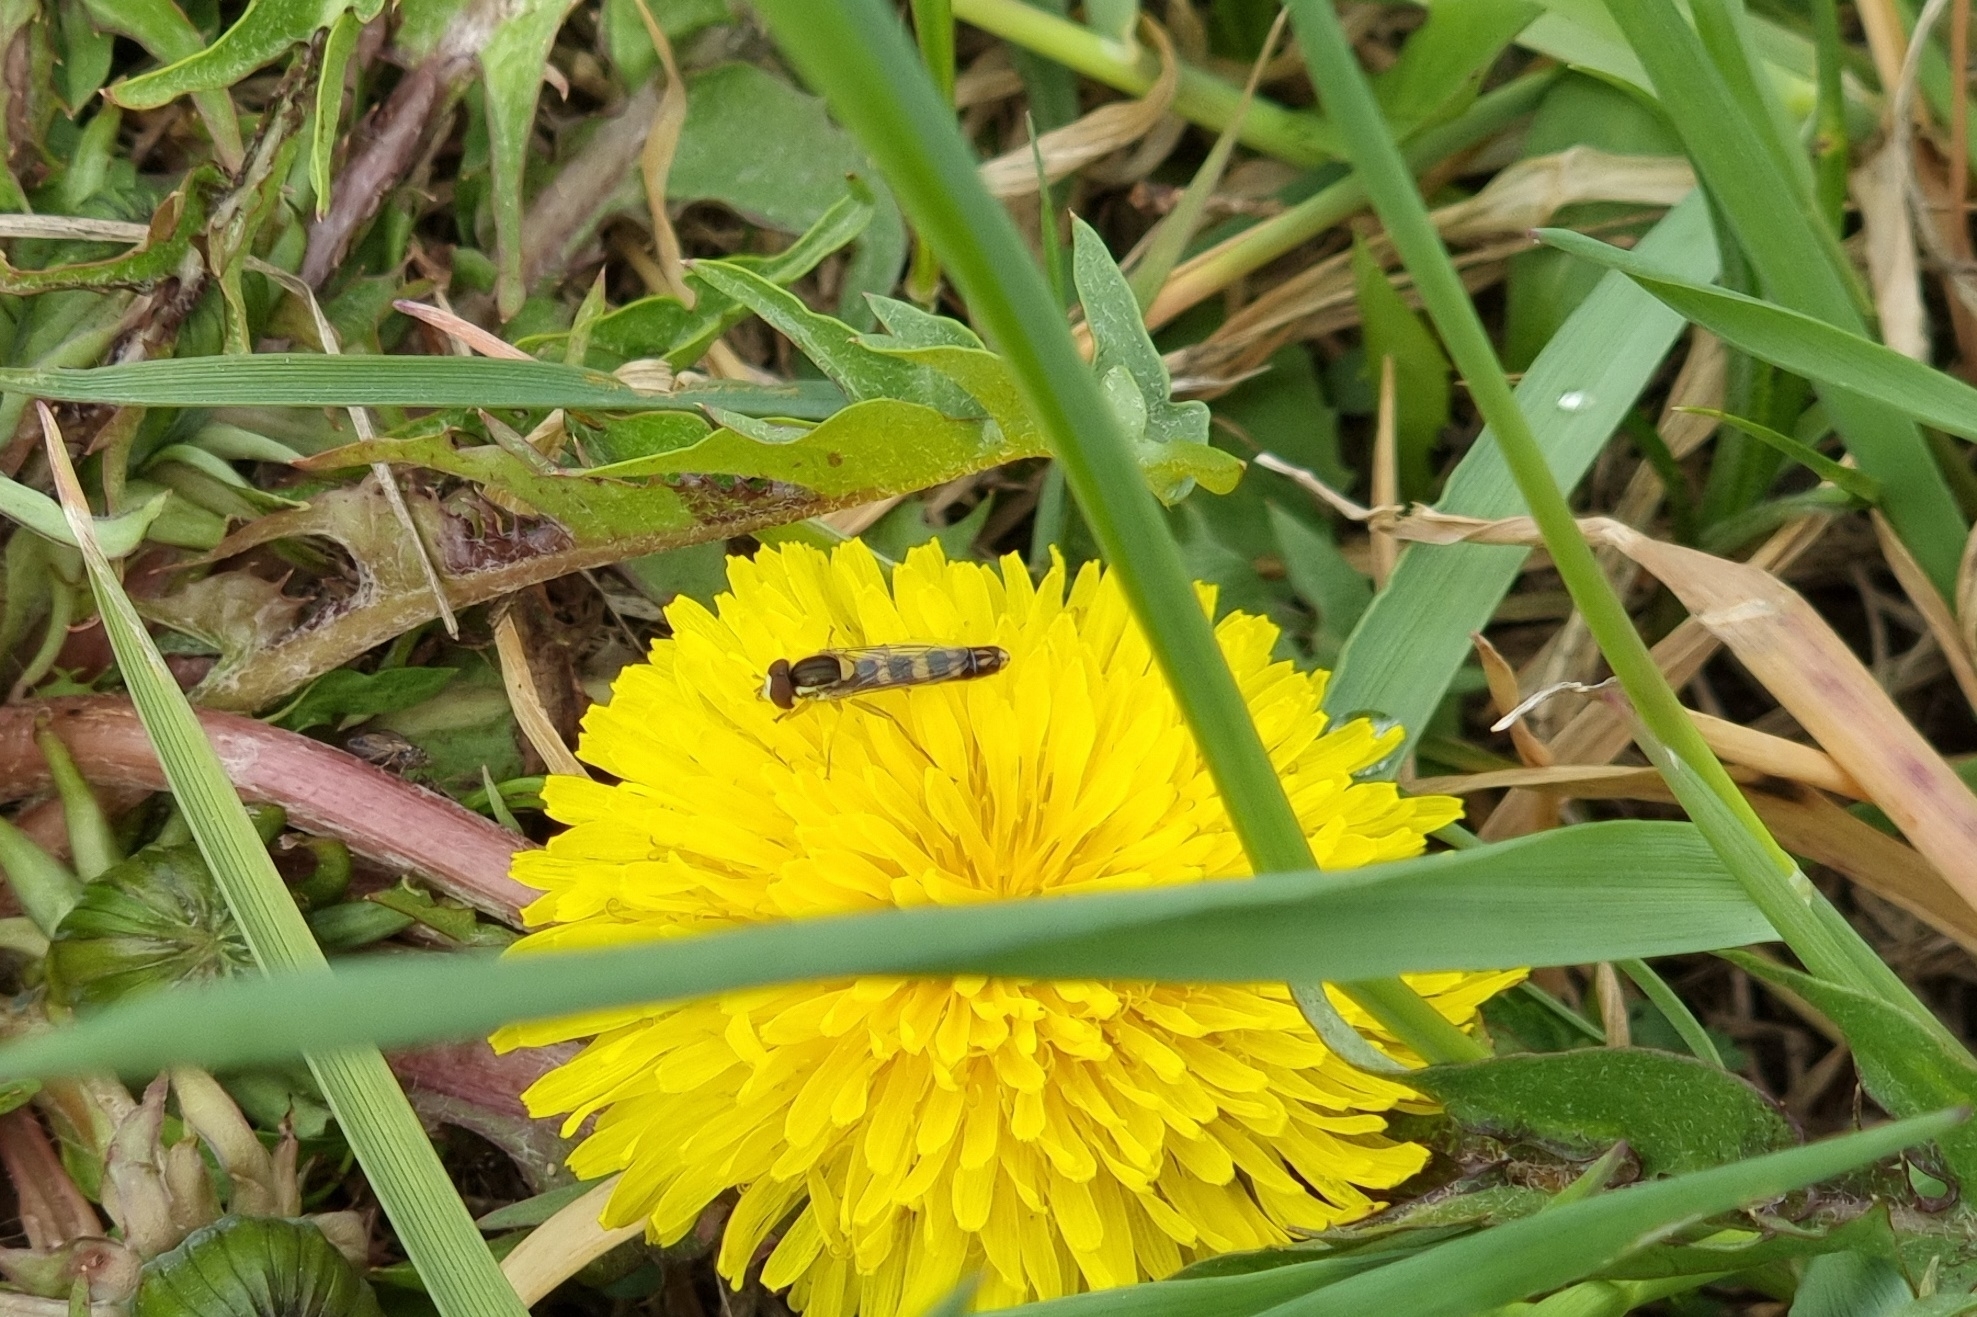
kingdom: Animalia
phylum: Arthropoda
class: Insecta
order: Diptera
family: Syrphidae
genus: Sphaerophoria
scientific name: Sphaerophoria scripta
